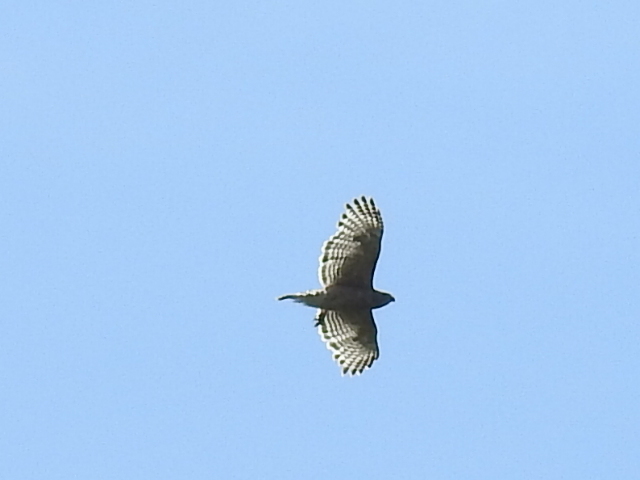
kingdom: Animalia
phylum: Chordata
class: Aves
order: Accipitriformes
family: Accipitridae
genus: Buteo
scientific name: Buteo lineatus
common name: Red-shouldered hawk
